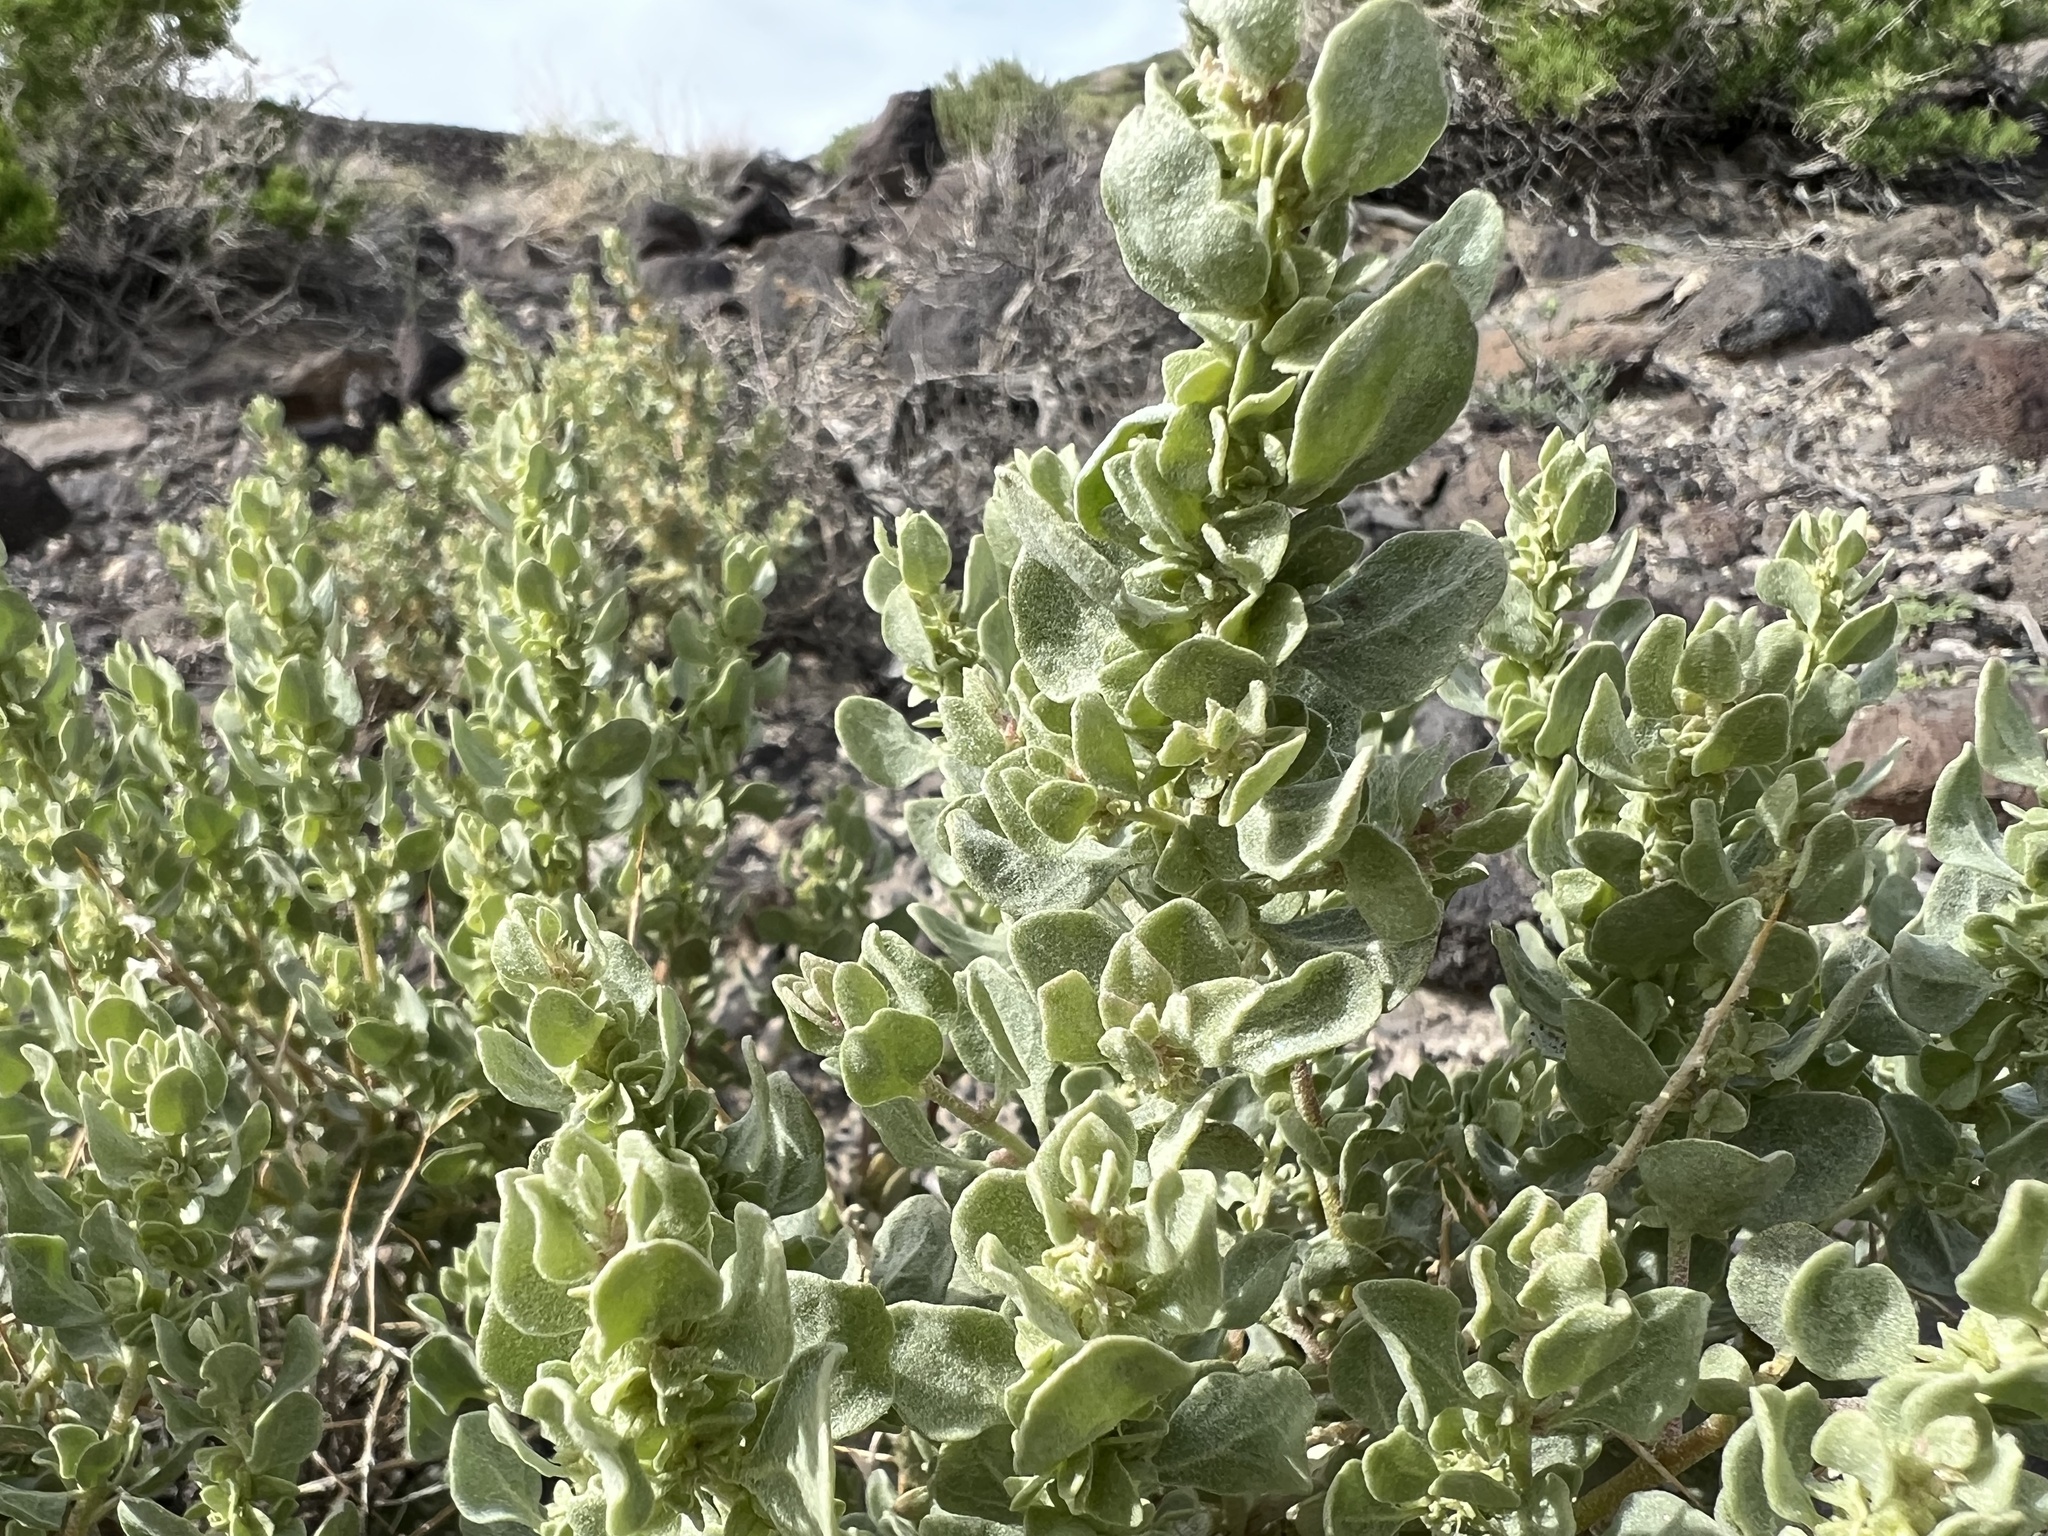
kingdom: Plantae
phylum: Tracheophyta
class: Magnoliopsida
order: Caryophyllales
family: Amaranthaceae
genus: Atriplex
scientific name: Atriplex confertifolia
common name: Shadscale
